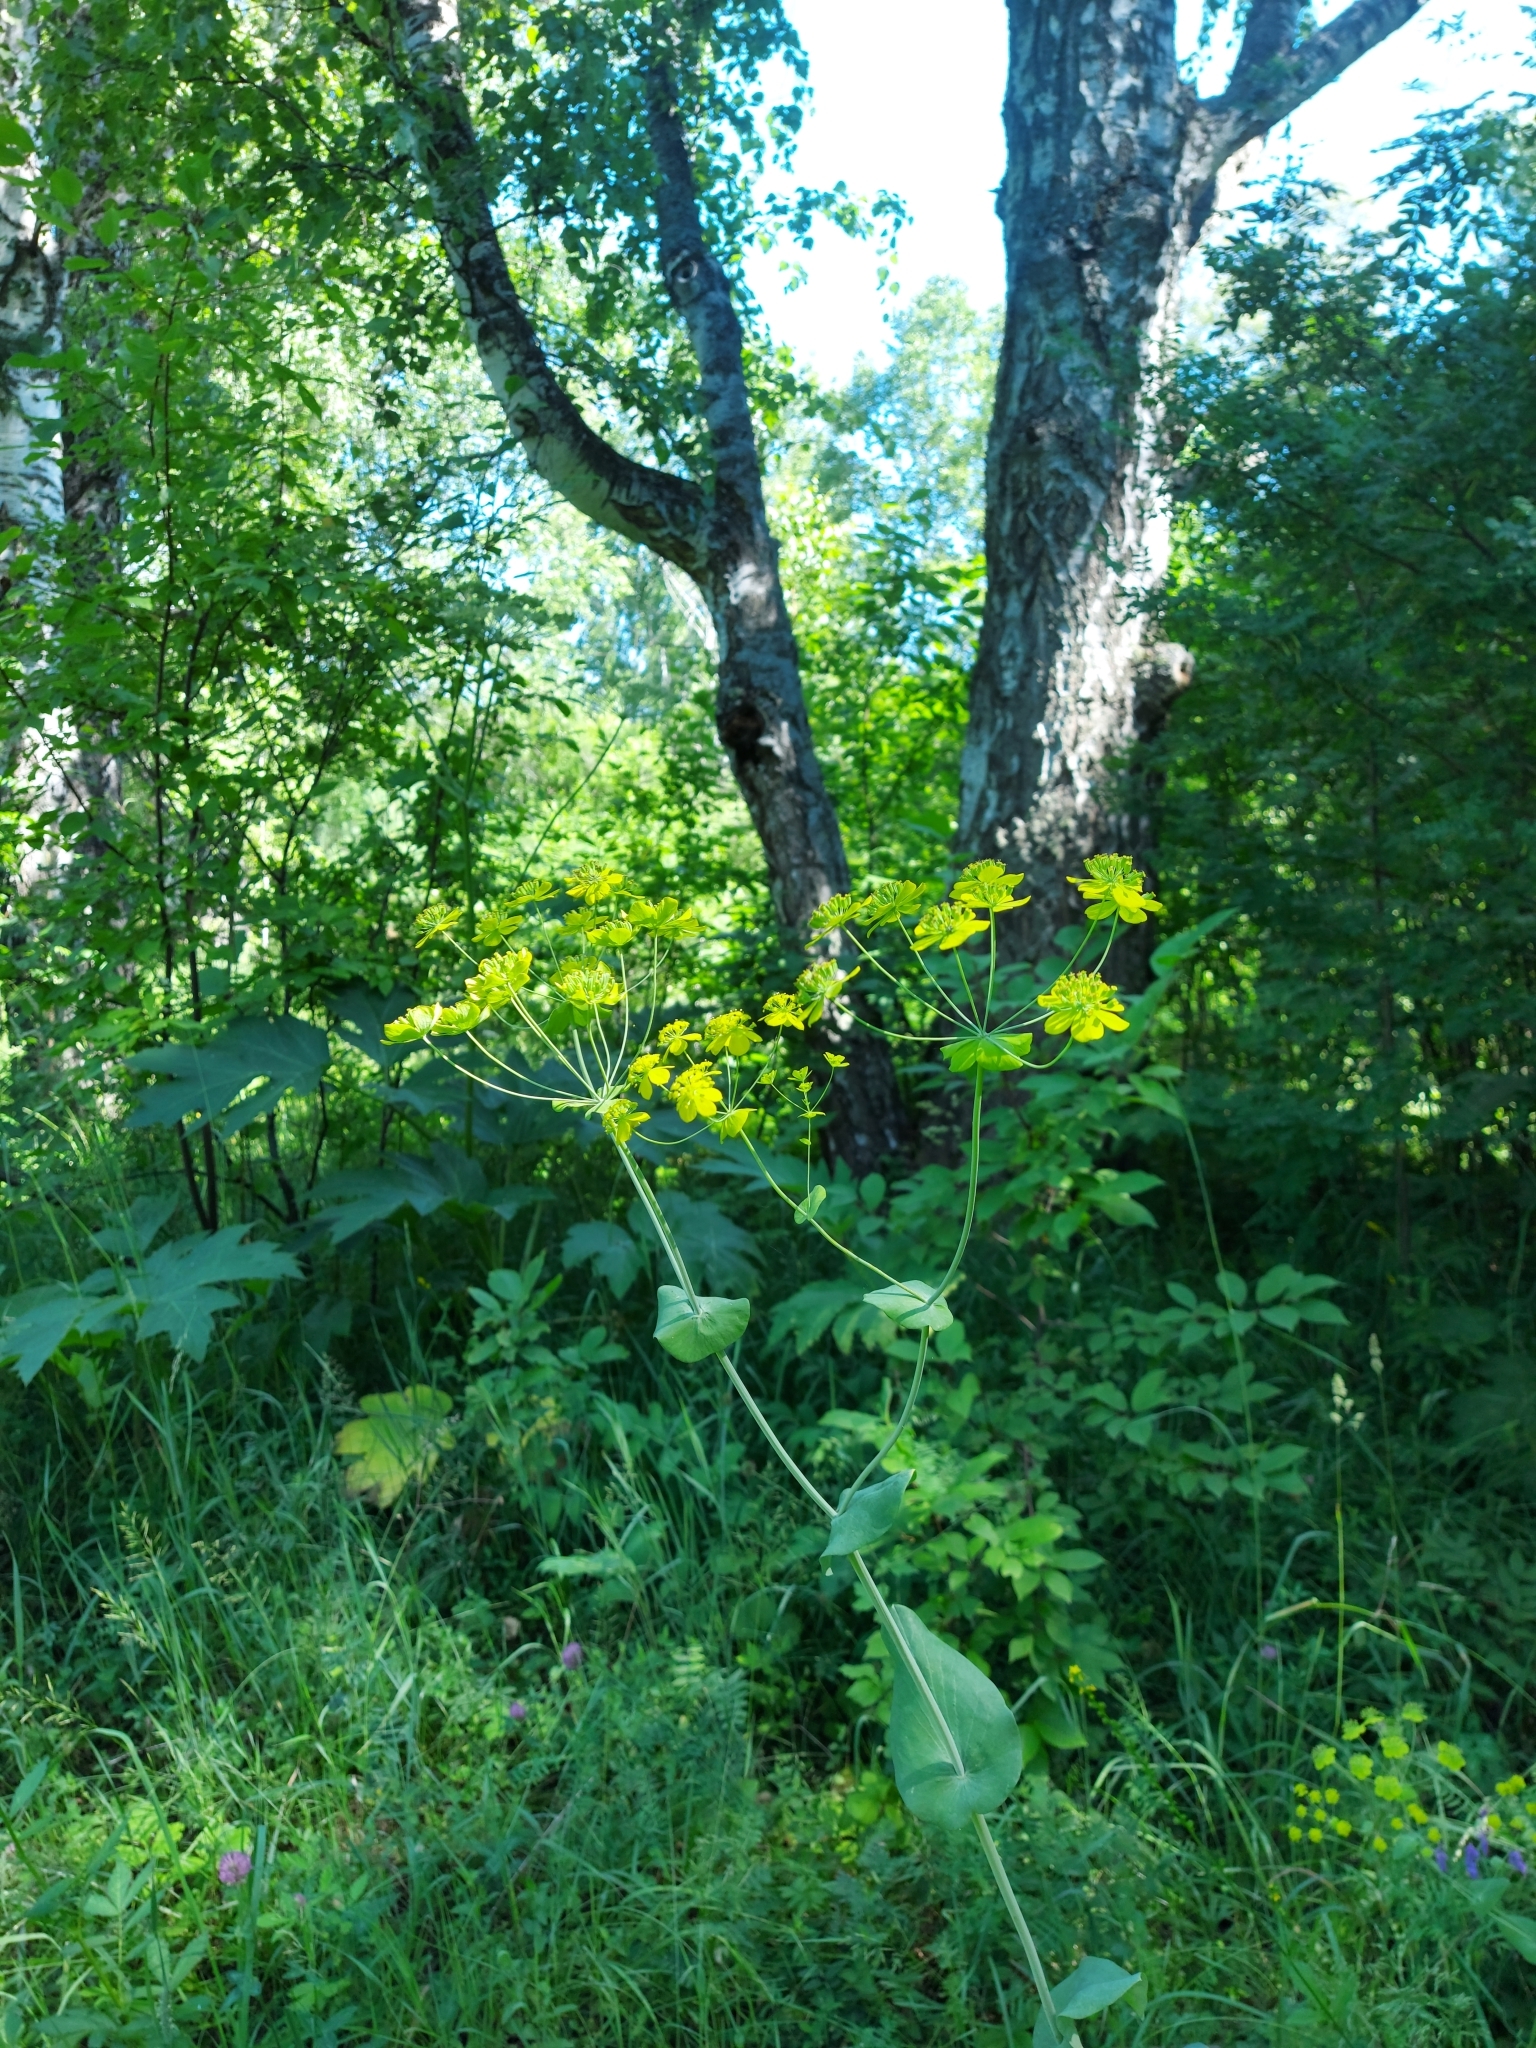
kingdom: Plantae
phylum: Tracheophyta
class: Magnoliopsida
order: Apiales
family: Apiaceae
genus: Bupleurum
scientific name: Bupleurum aureum
